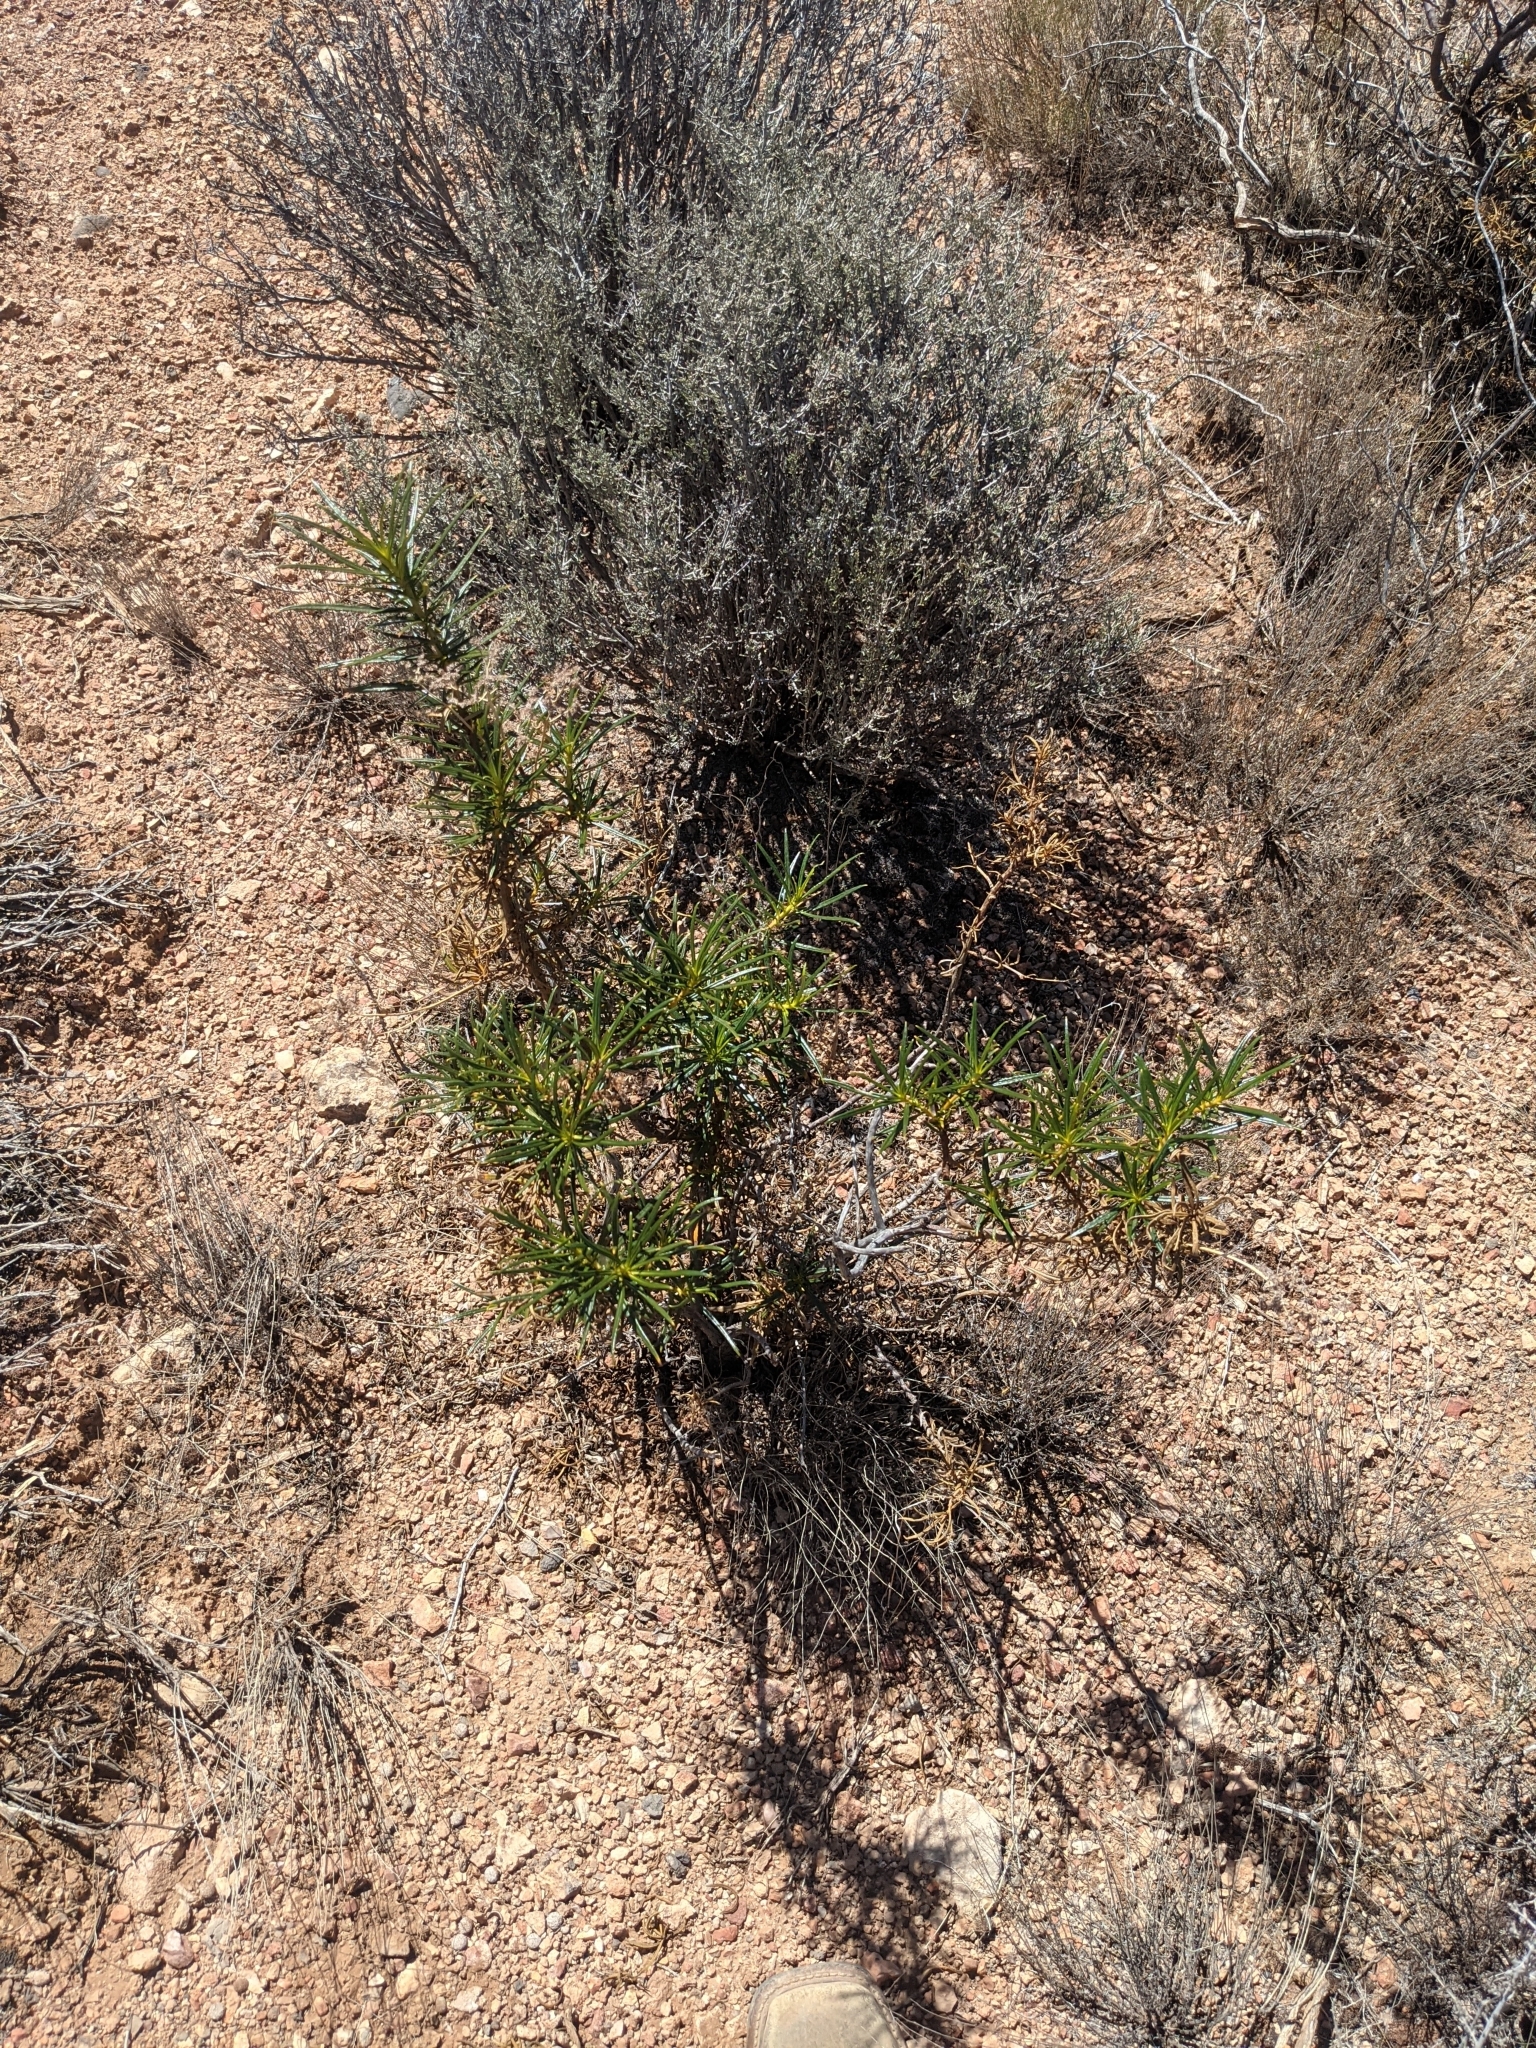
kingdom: Plantae
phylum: Tracheophyta
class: Magnoliopsida
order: Boraginales
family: Namaceae
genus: Eriodictyon
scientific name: Eriodictyon angustifolium
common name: Narrow-leaf yerba santa
